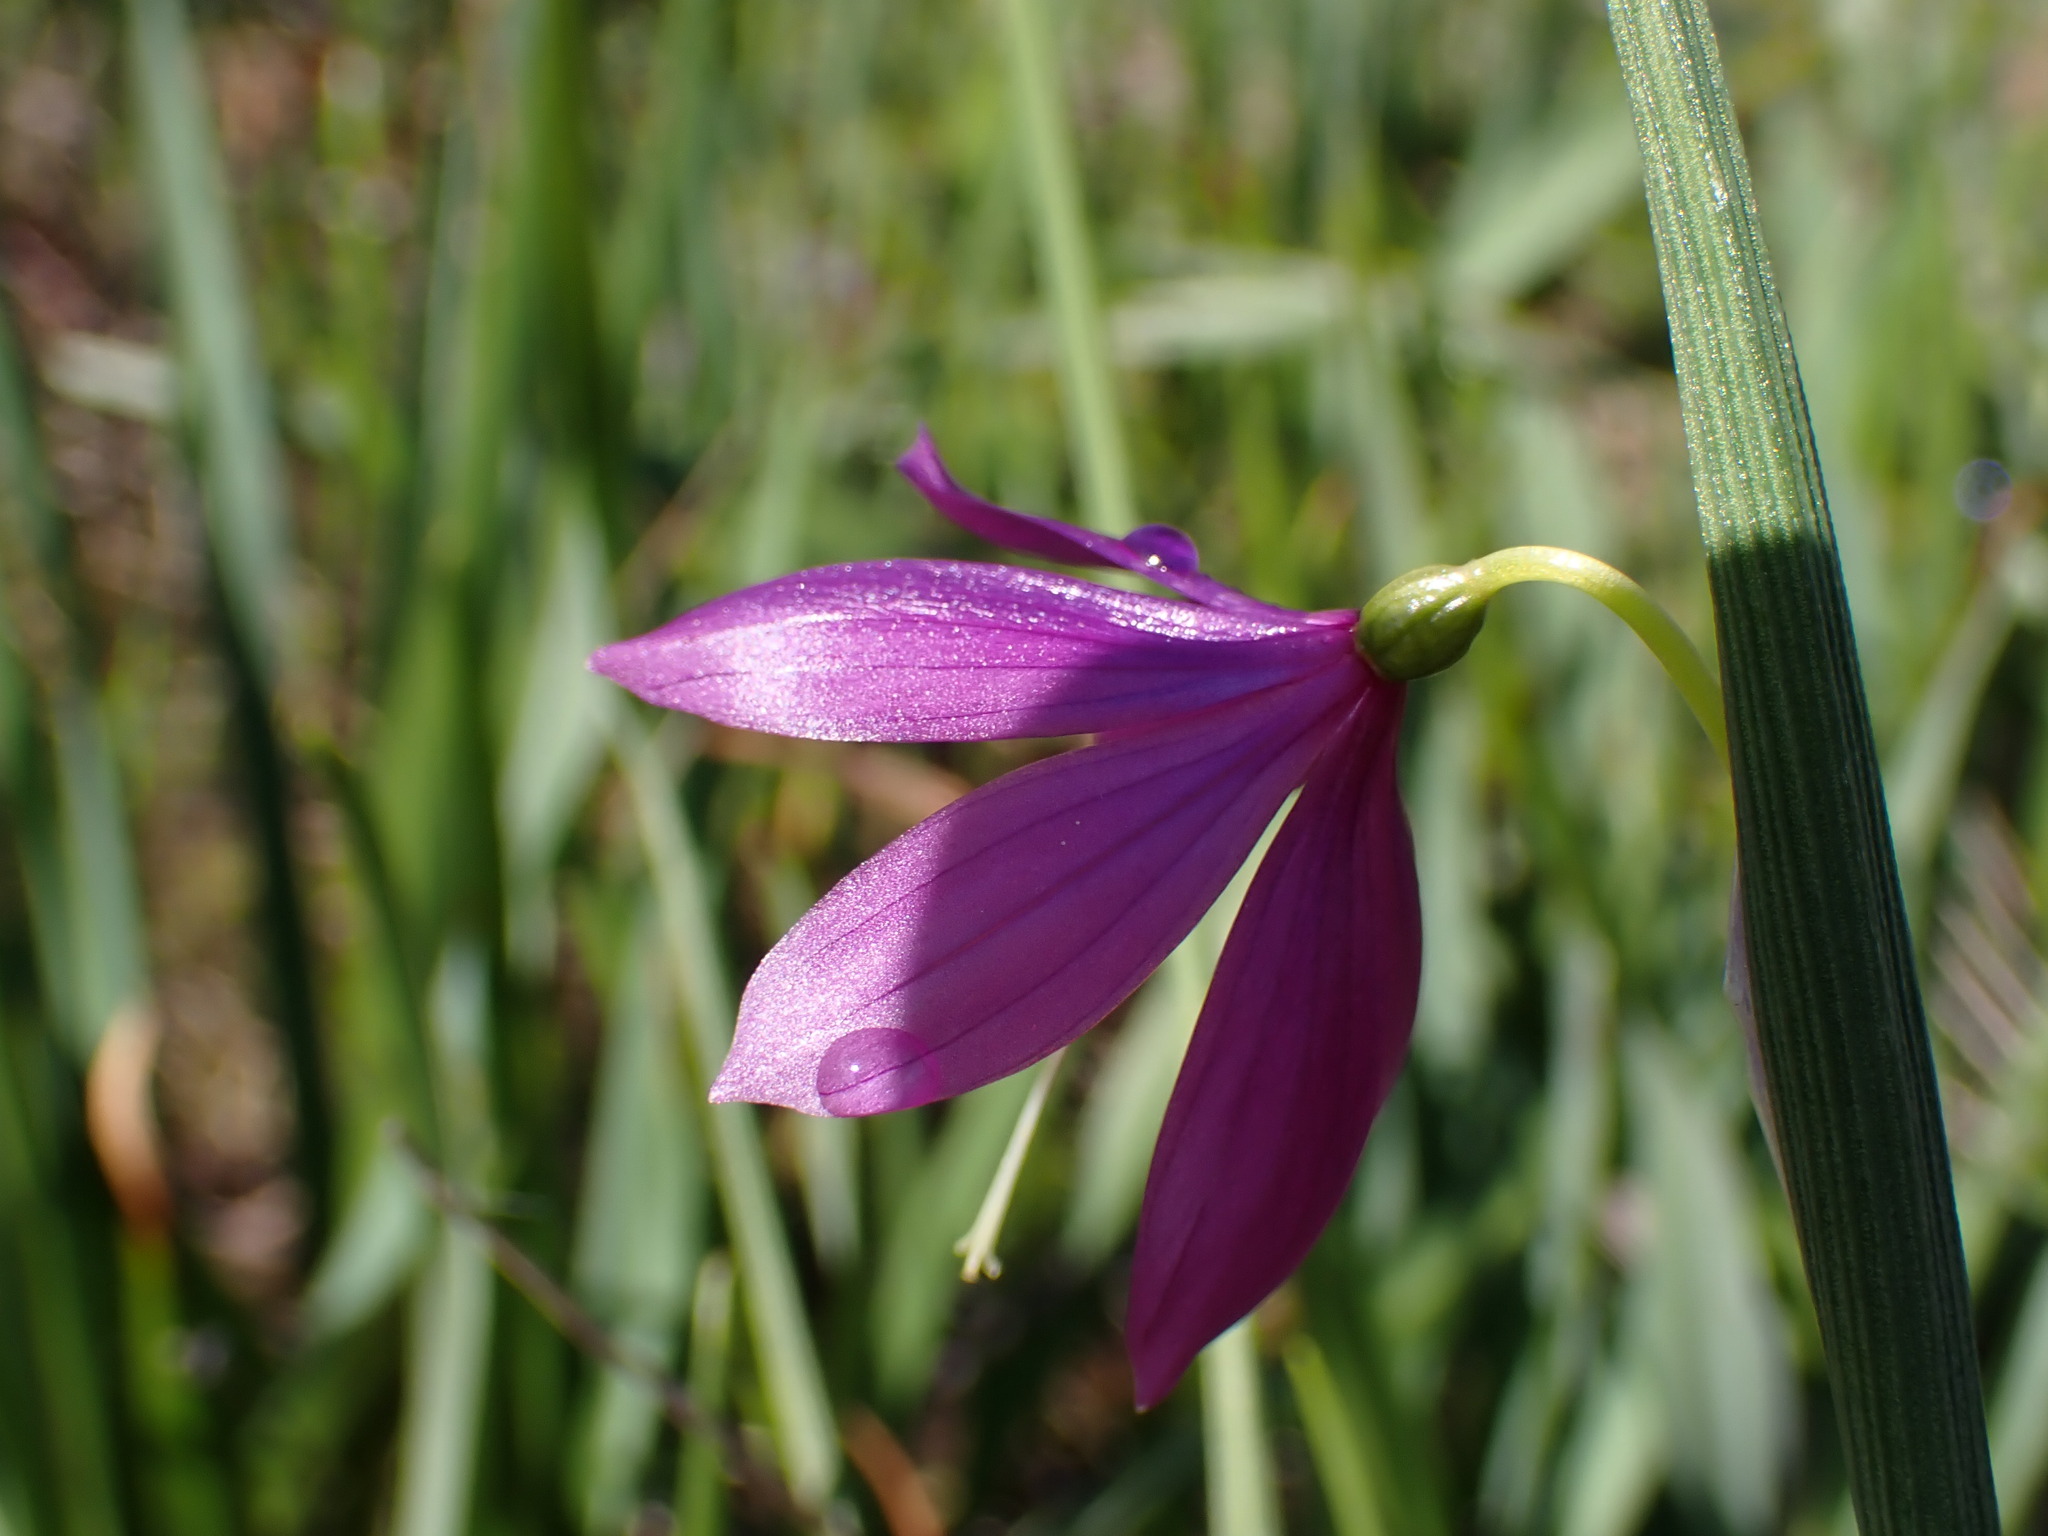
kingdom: Plantae
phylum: Tracheophyta
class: Liliopsida
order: Asparagales
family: Iridaceae
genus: Olsynium
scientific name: Olsynium douglasii
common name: Douglas' grasswidow
